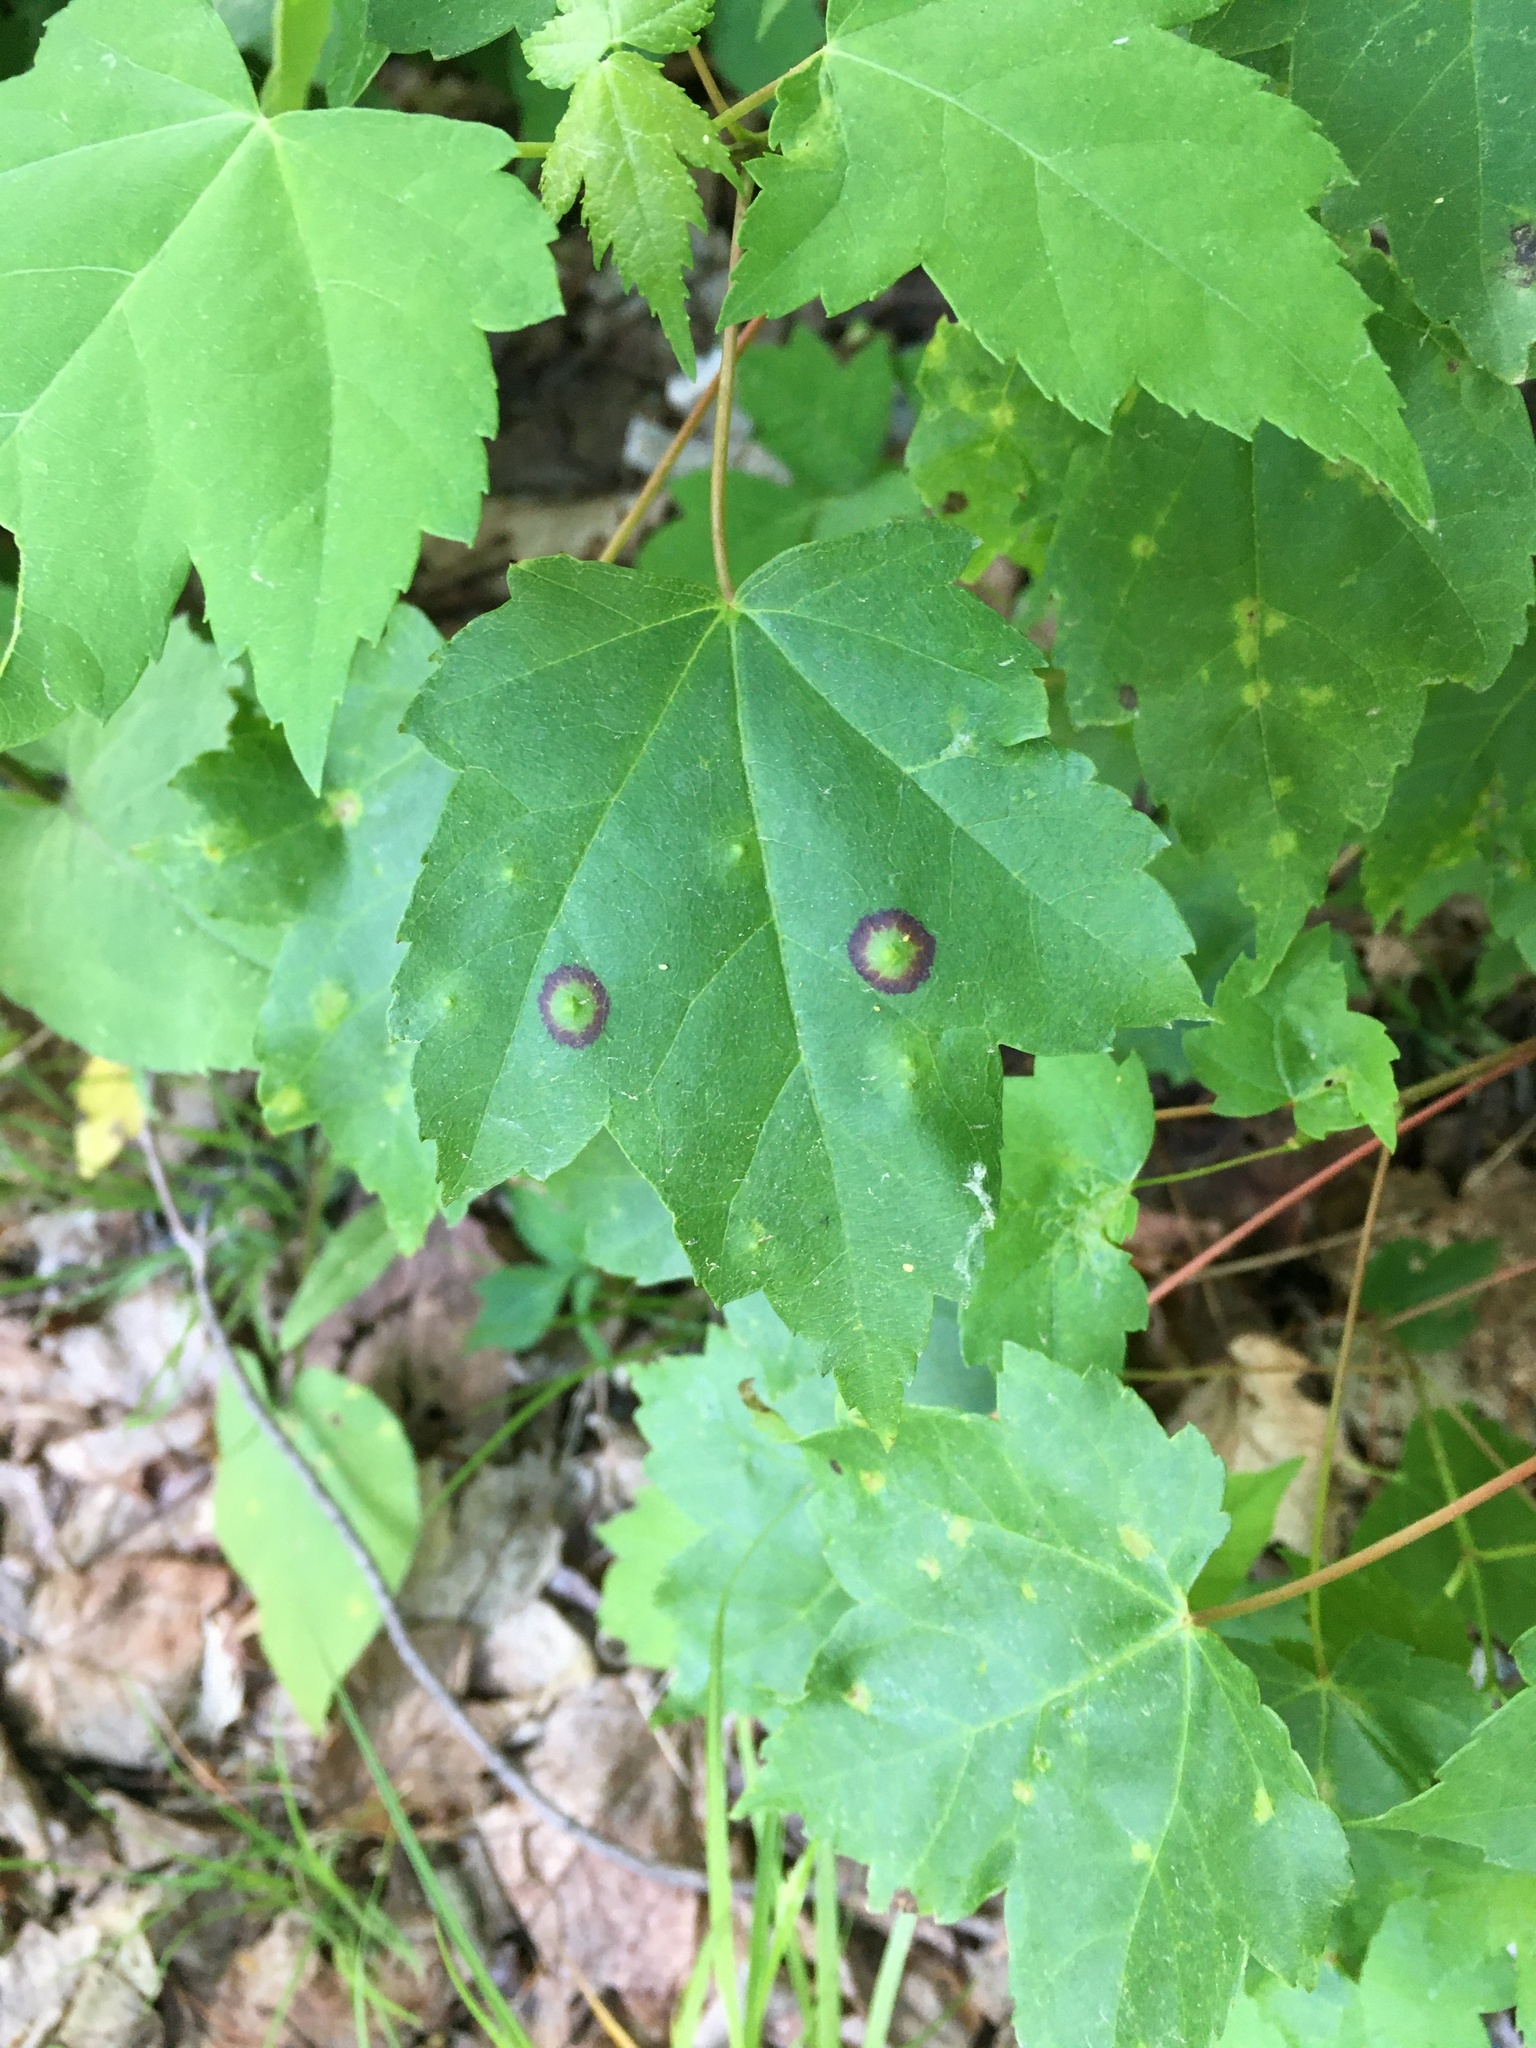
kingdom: Animalia
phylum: Arthropoda
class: Insecta
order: Diptera
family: Cecidomyiidae
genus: Acericecis
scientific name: Acericecis ocellaris
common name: Ocellate gall midge
